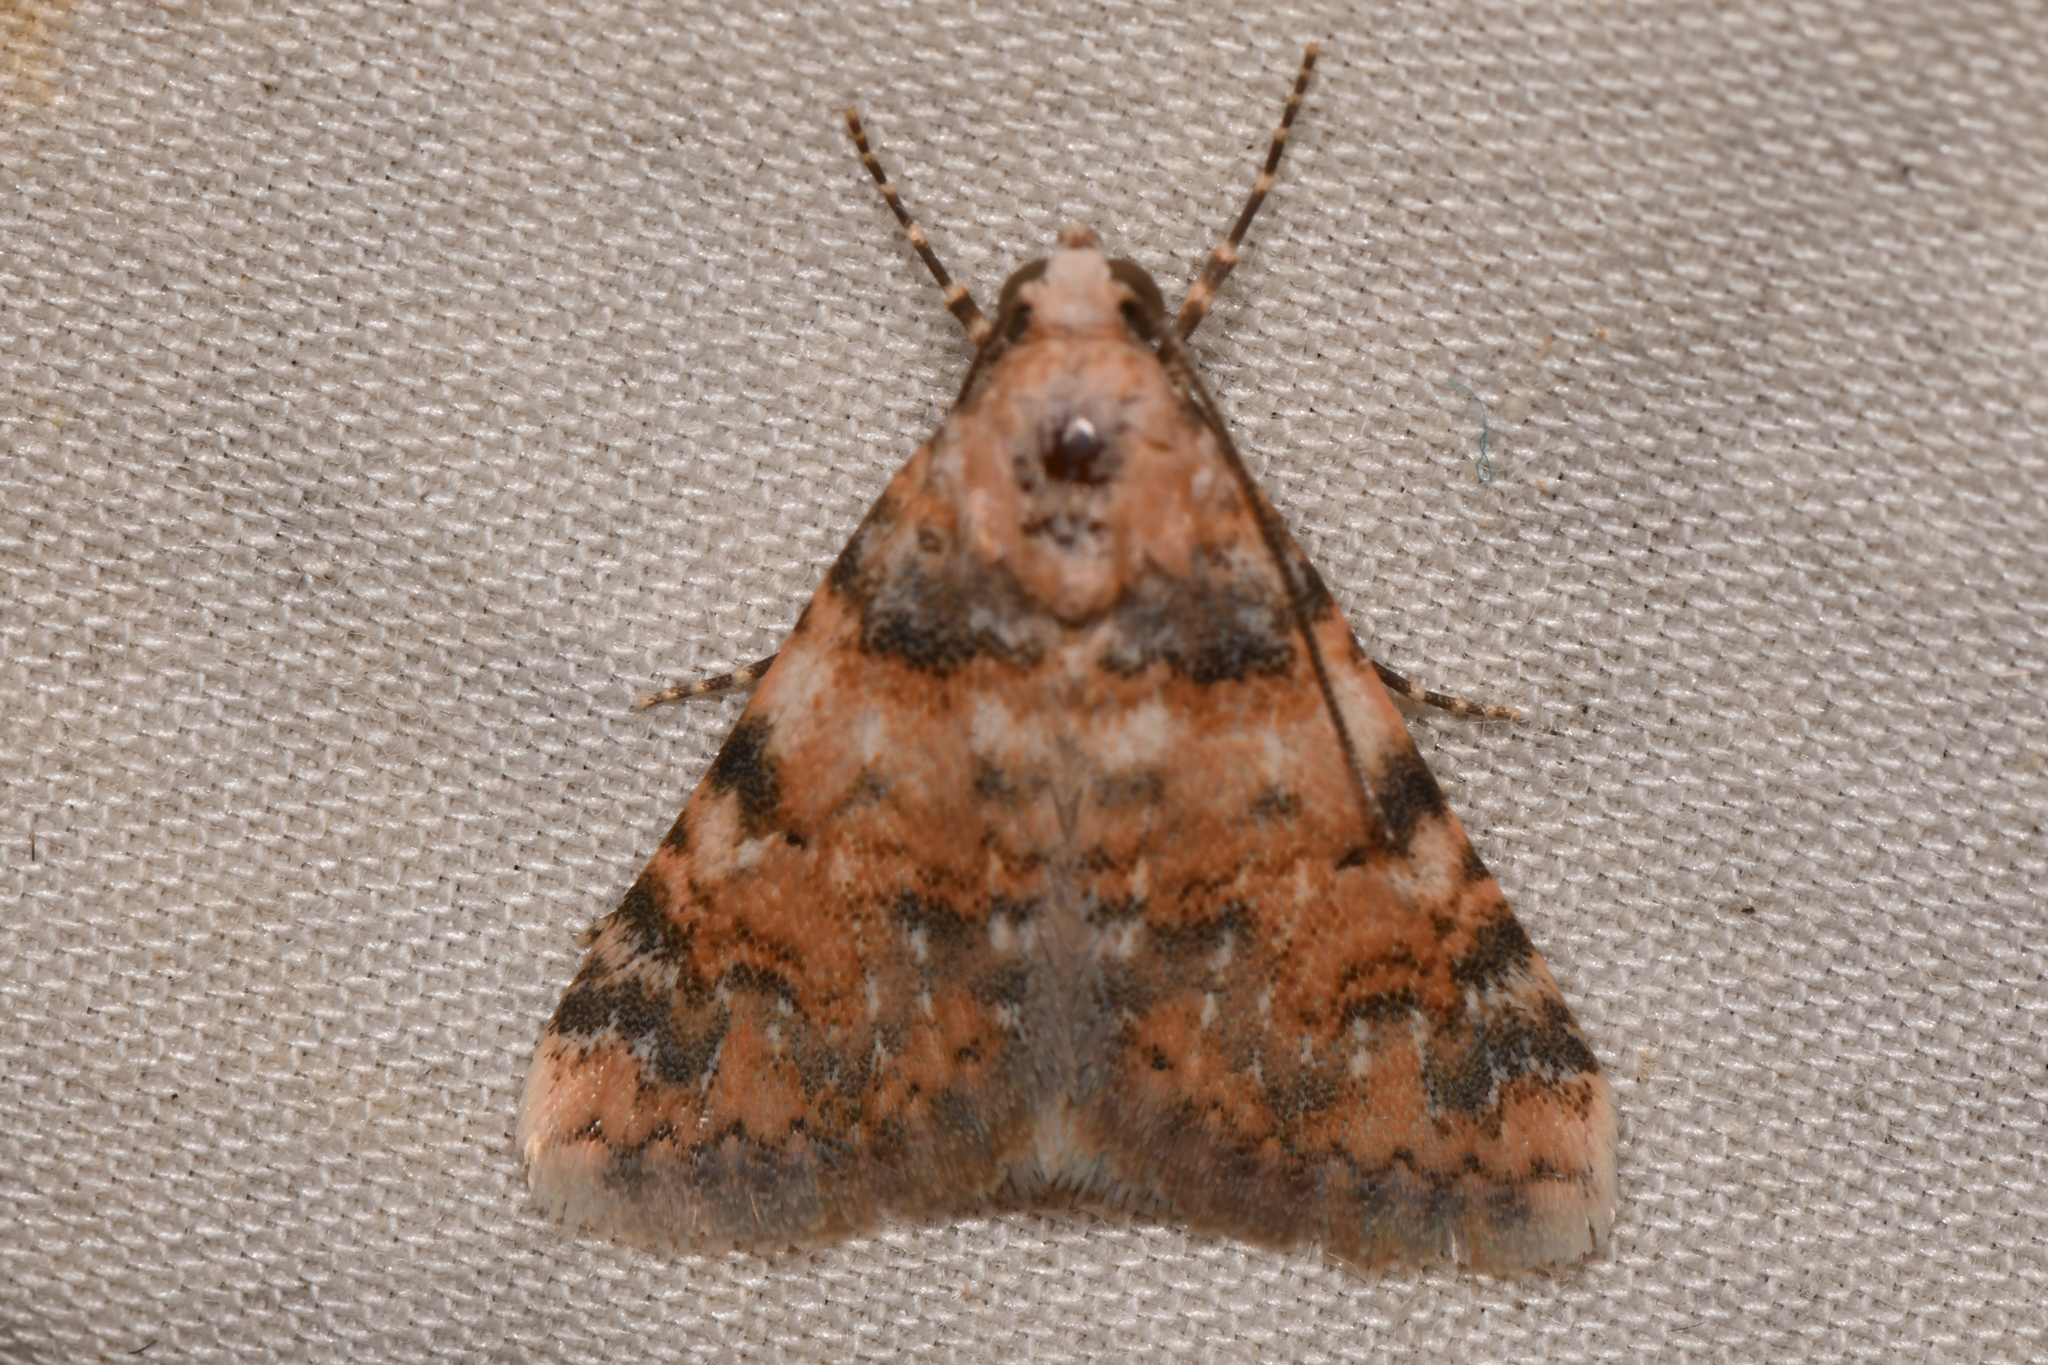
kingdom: Animalia
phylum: Arthropoda
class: Insecta
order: Lepidoptera
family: Noctuidae
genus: Allerastria
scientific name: Allerastria albiciliatus
